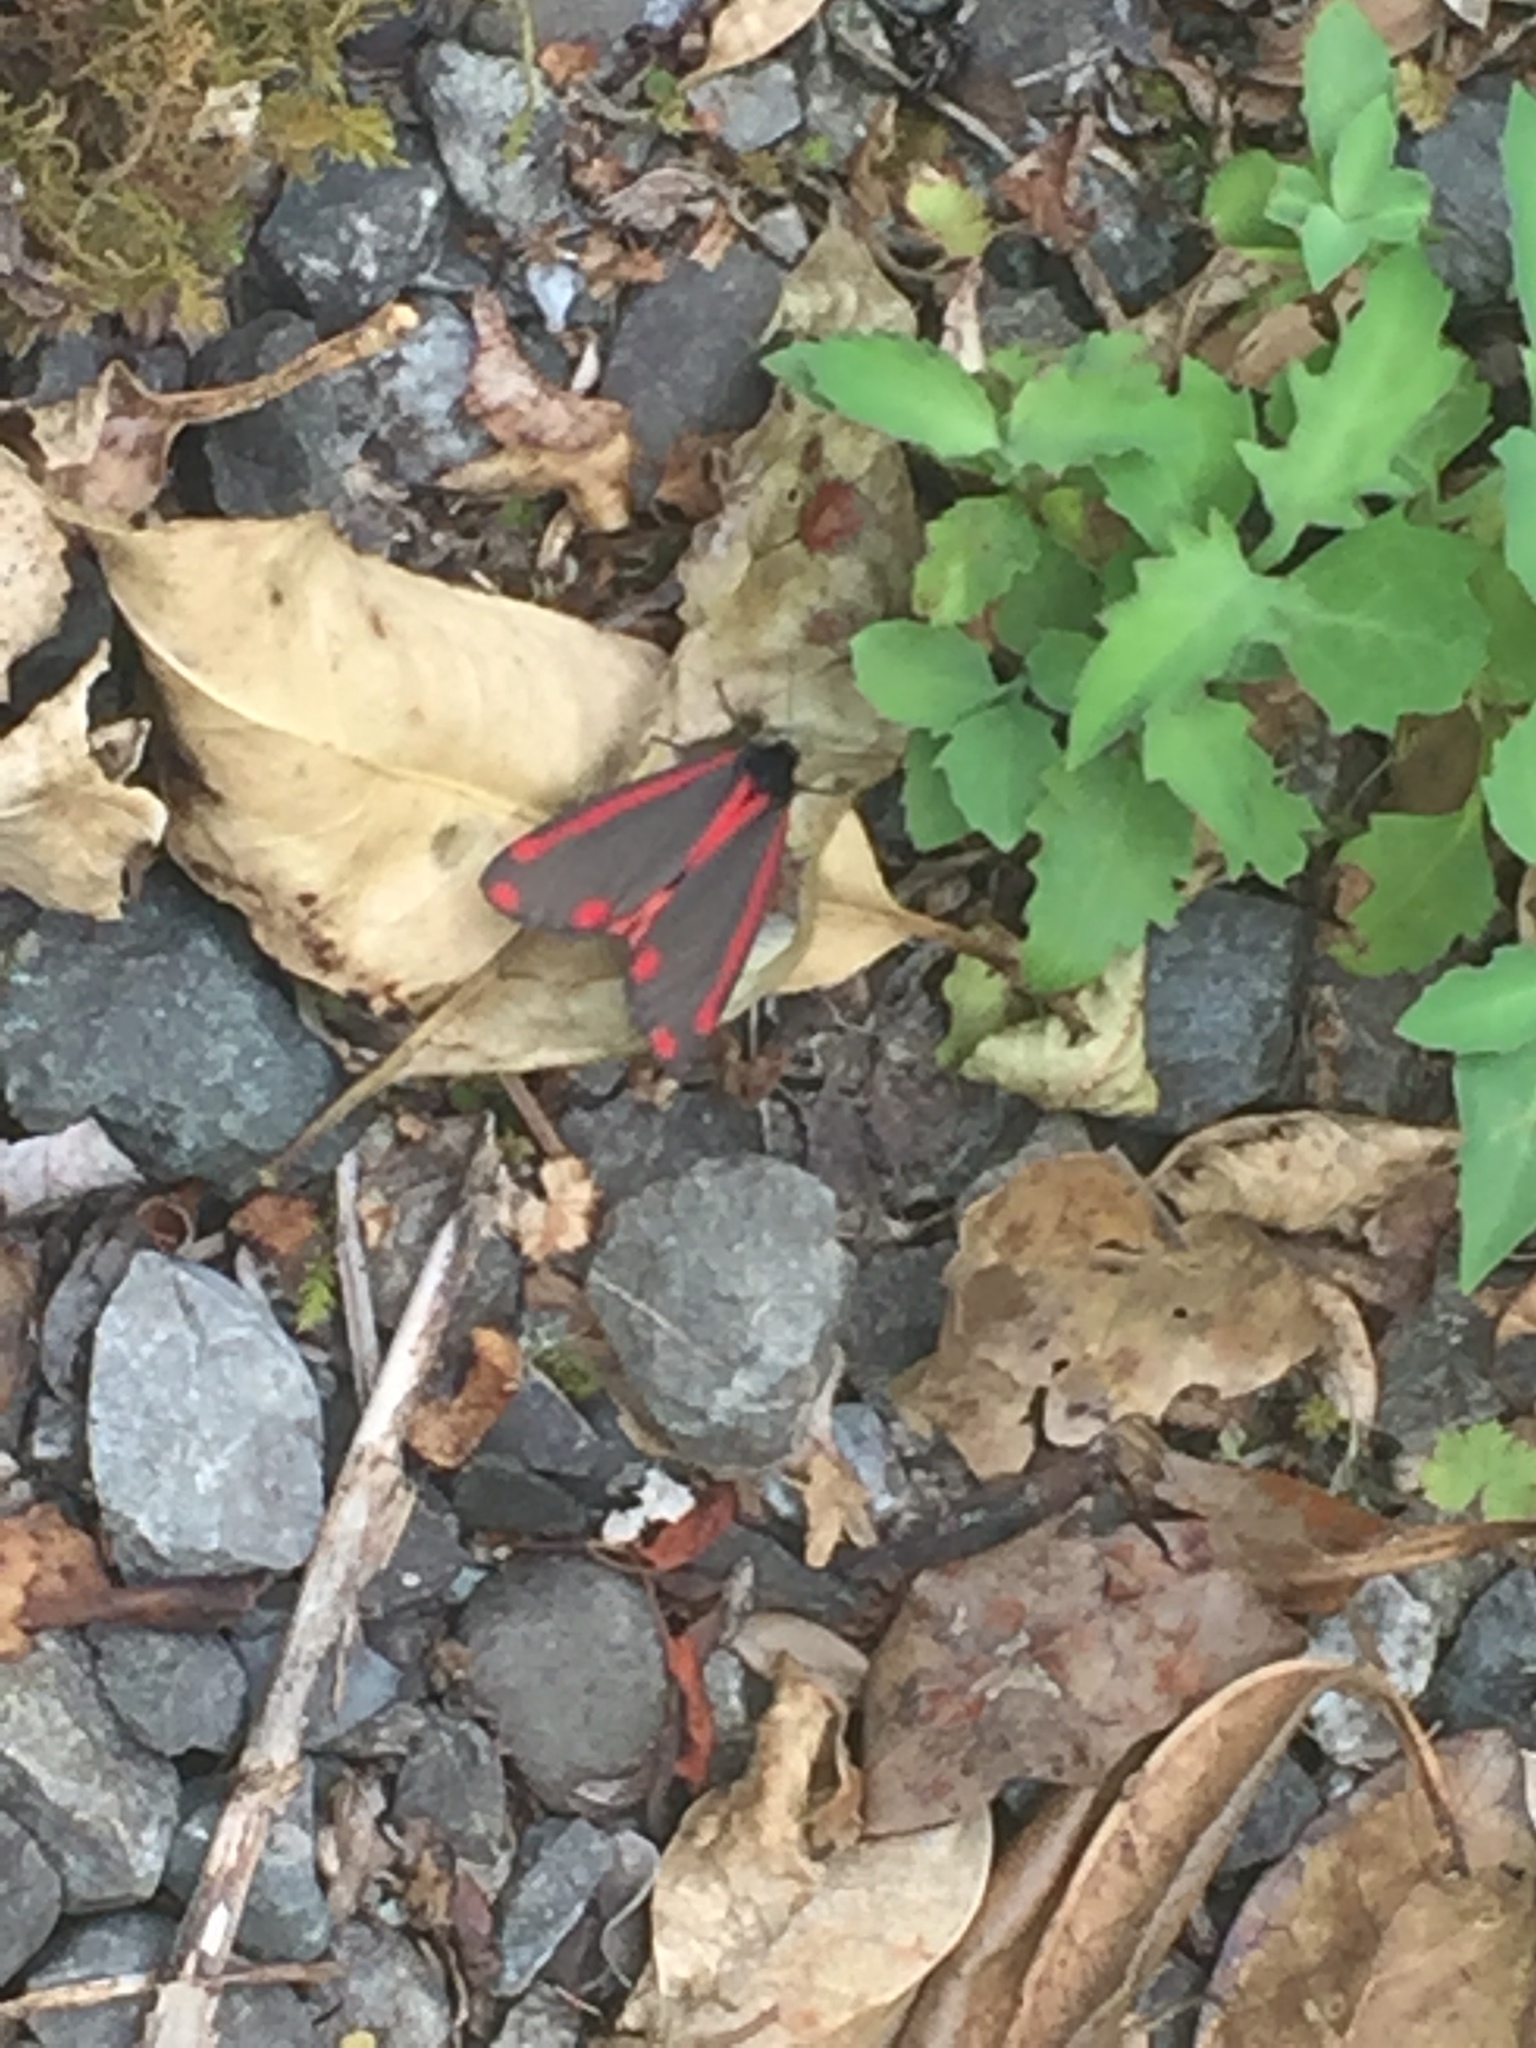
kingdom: Animalia
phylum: Arthropoda
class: Insecta
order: Lepidoptera
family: Erebidae
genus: Tyria
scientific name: Tyria jacobaeae
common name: Cinnabar
